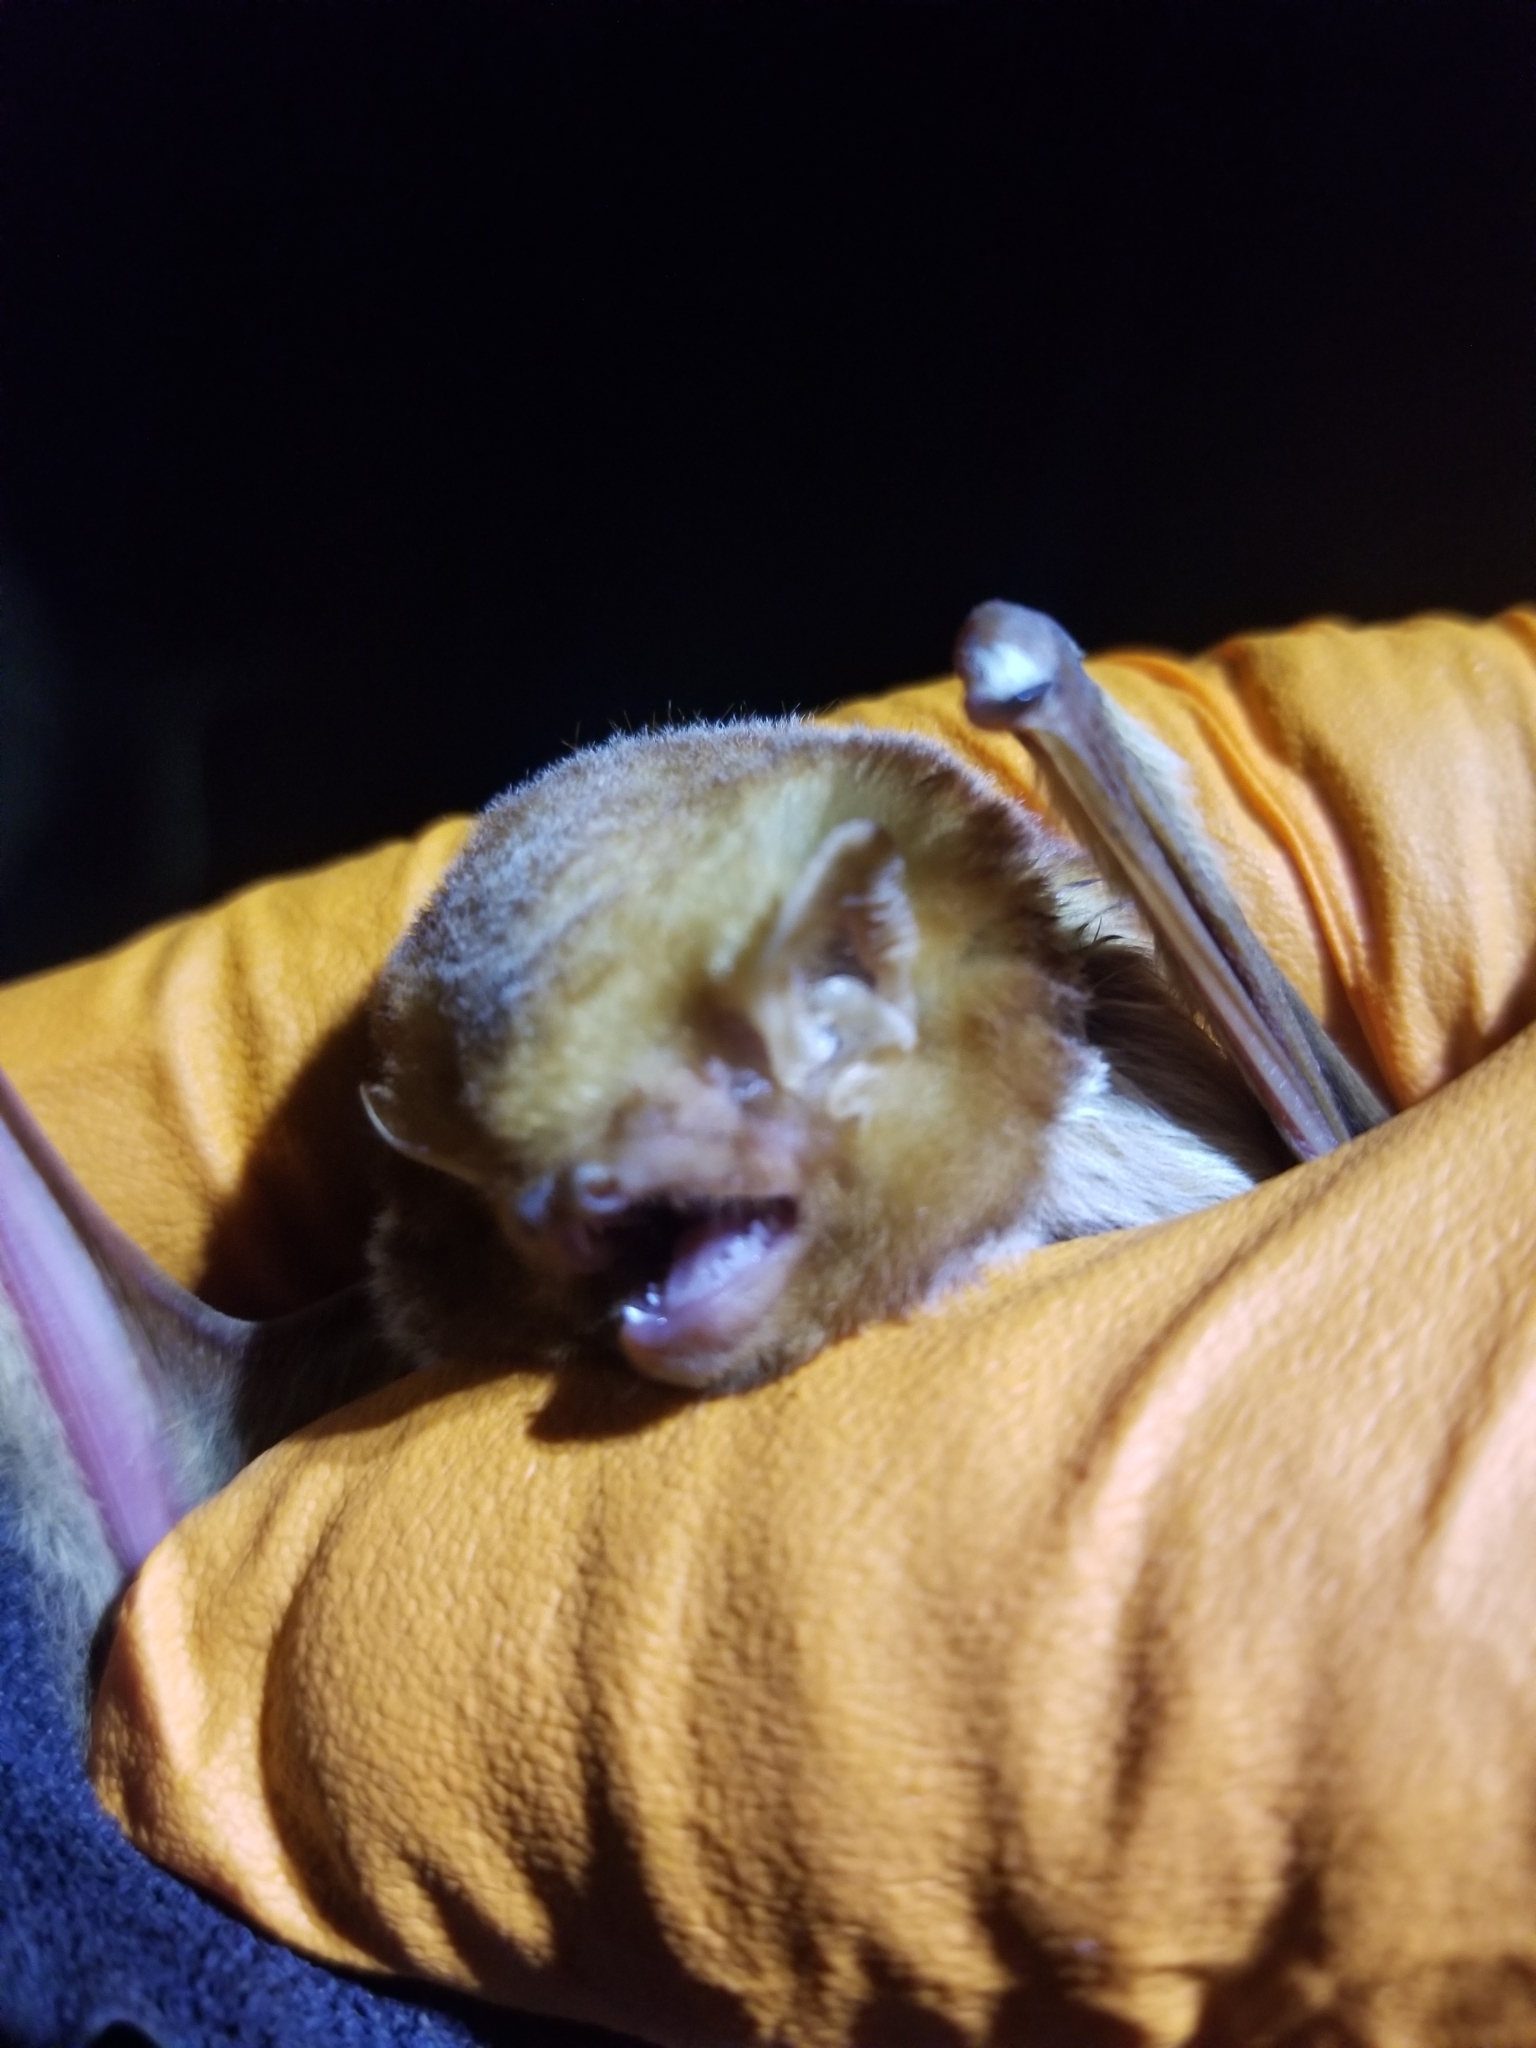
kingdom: Animalia
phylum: Chordata
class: Mammalia
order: Chiroptera
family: Vespertilionidae
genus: Lasiurus
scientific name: Lasiurus borealis
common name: Eastern red bat
